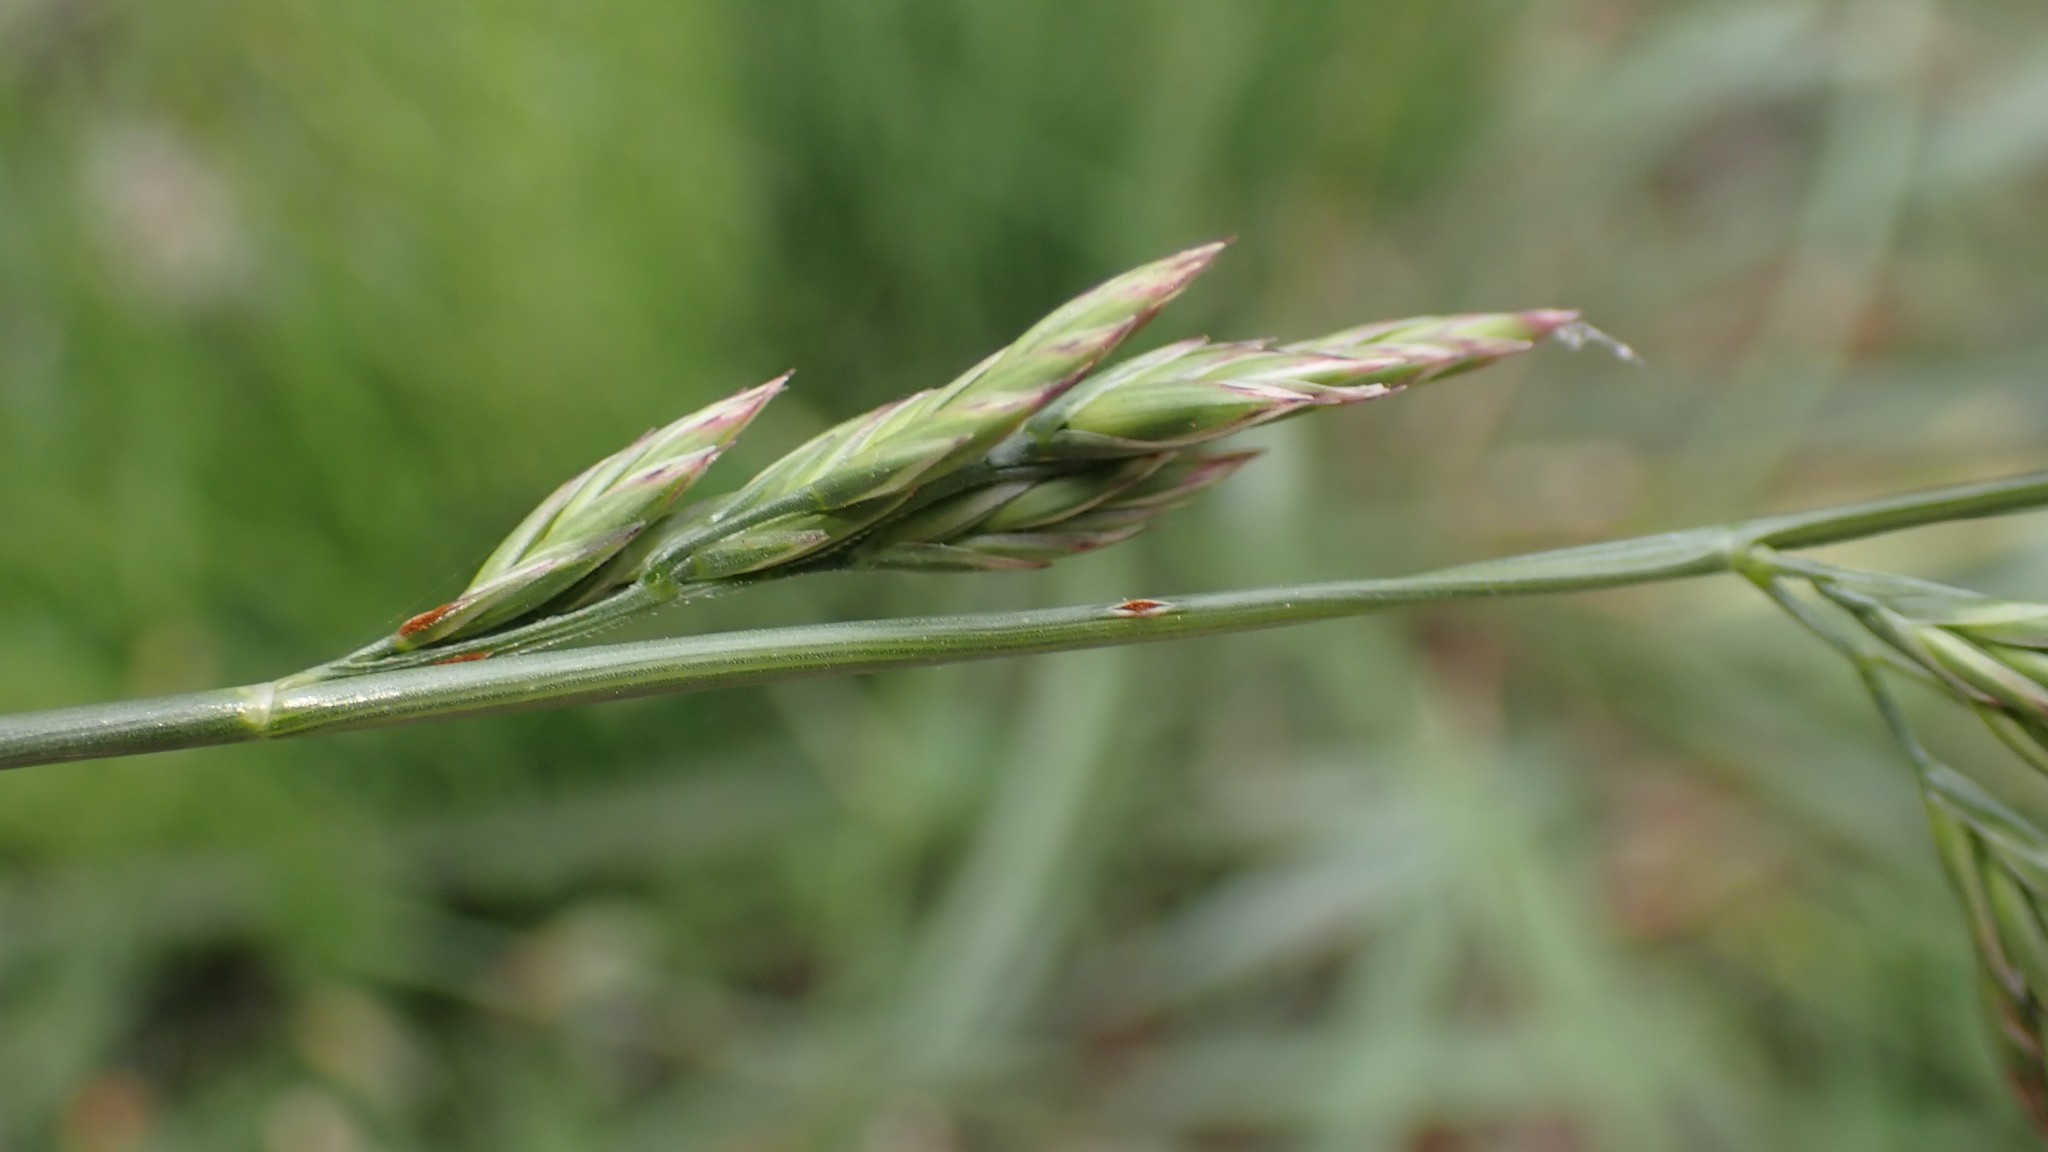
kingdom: Plantae
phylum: Tracheophyta
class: Liliopsida
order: Poales
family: Poaceae
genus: Festuca
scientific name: Festuca rubra
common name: Red fescue
